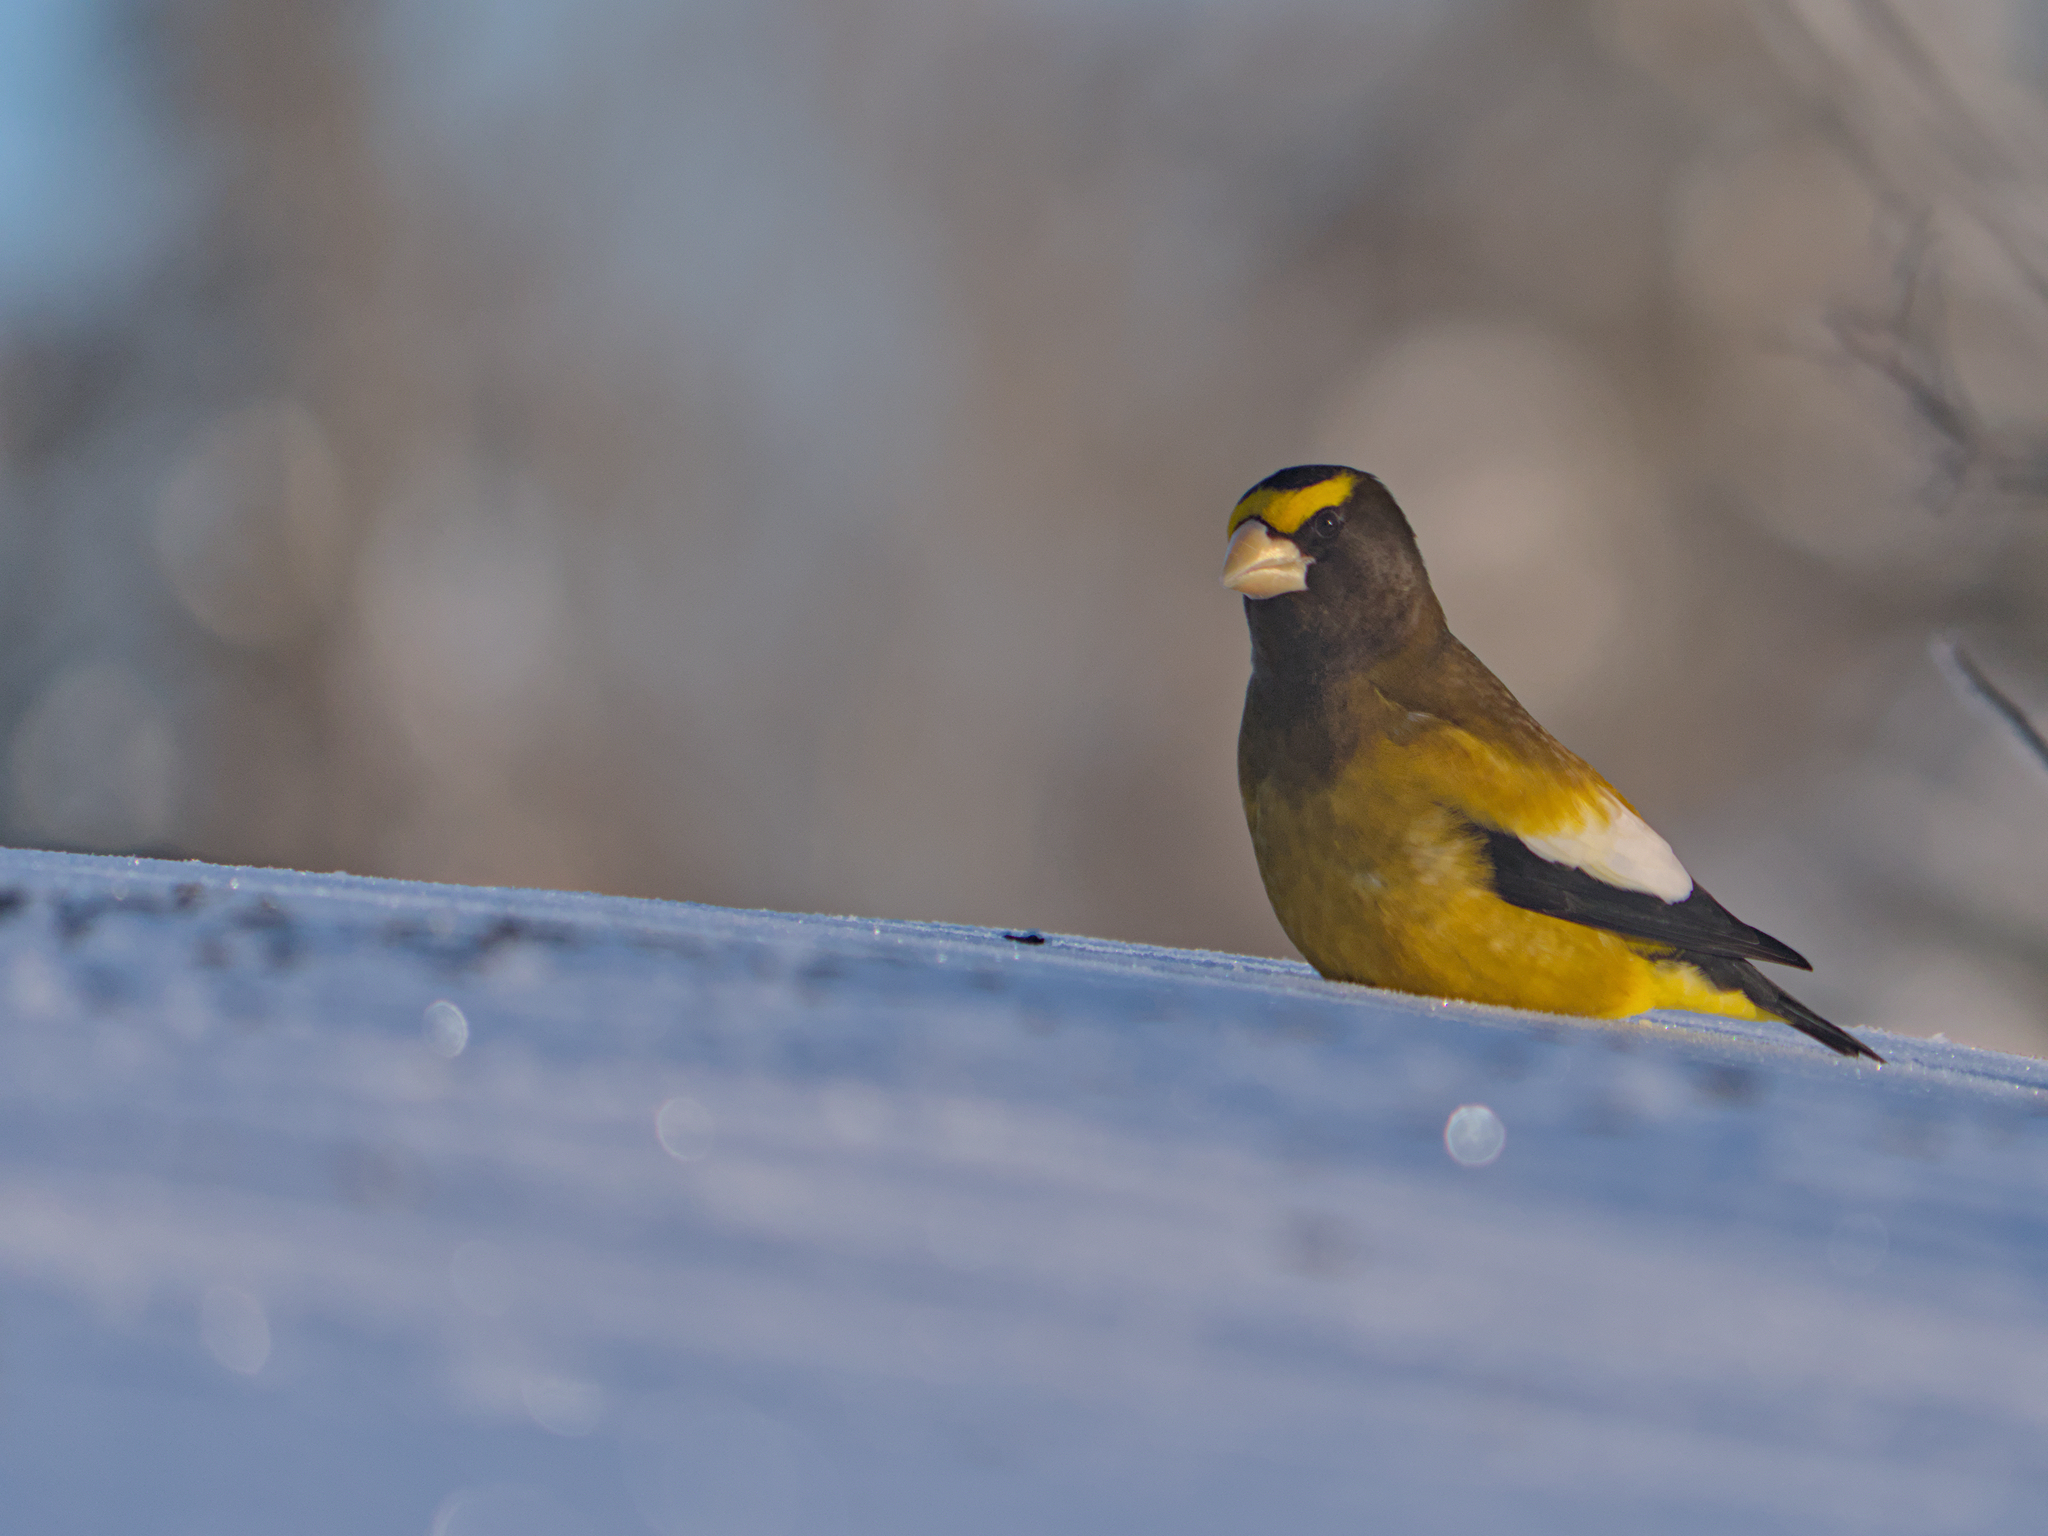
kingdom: Animalia
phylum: Chordata
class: Aves
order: Passeriformes
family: Fringillidae
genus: Hesperiphona
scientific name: Hesperiphona vespertina
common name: Evening grosbeak
